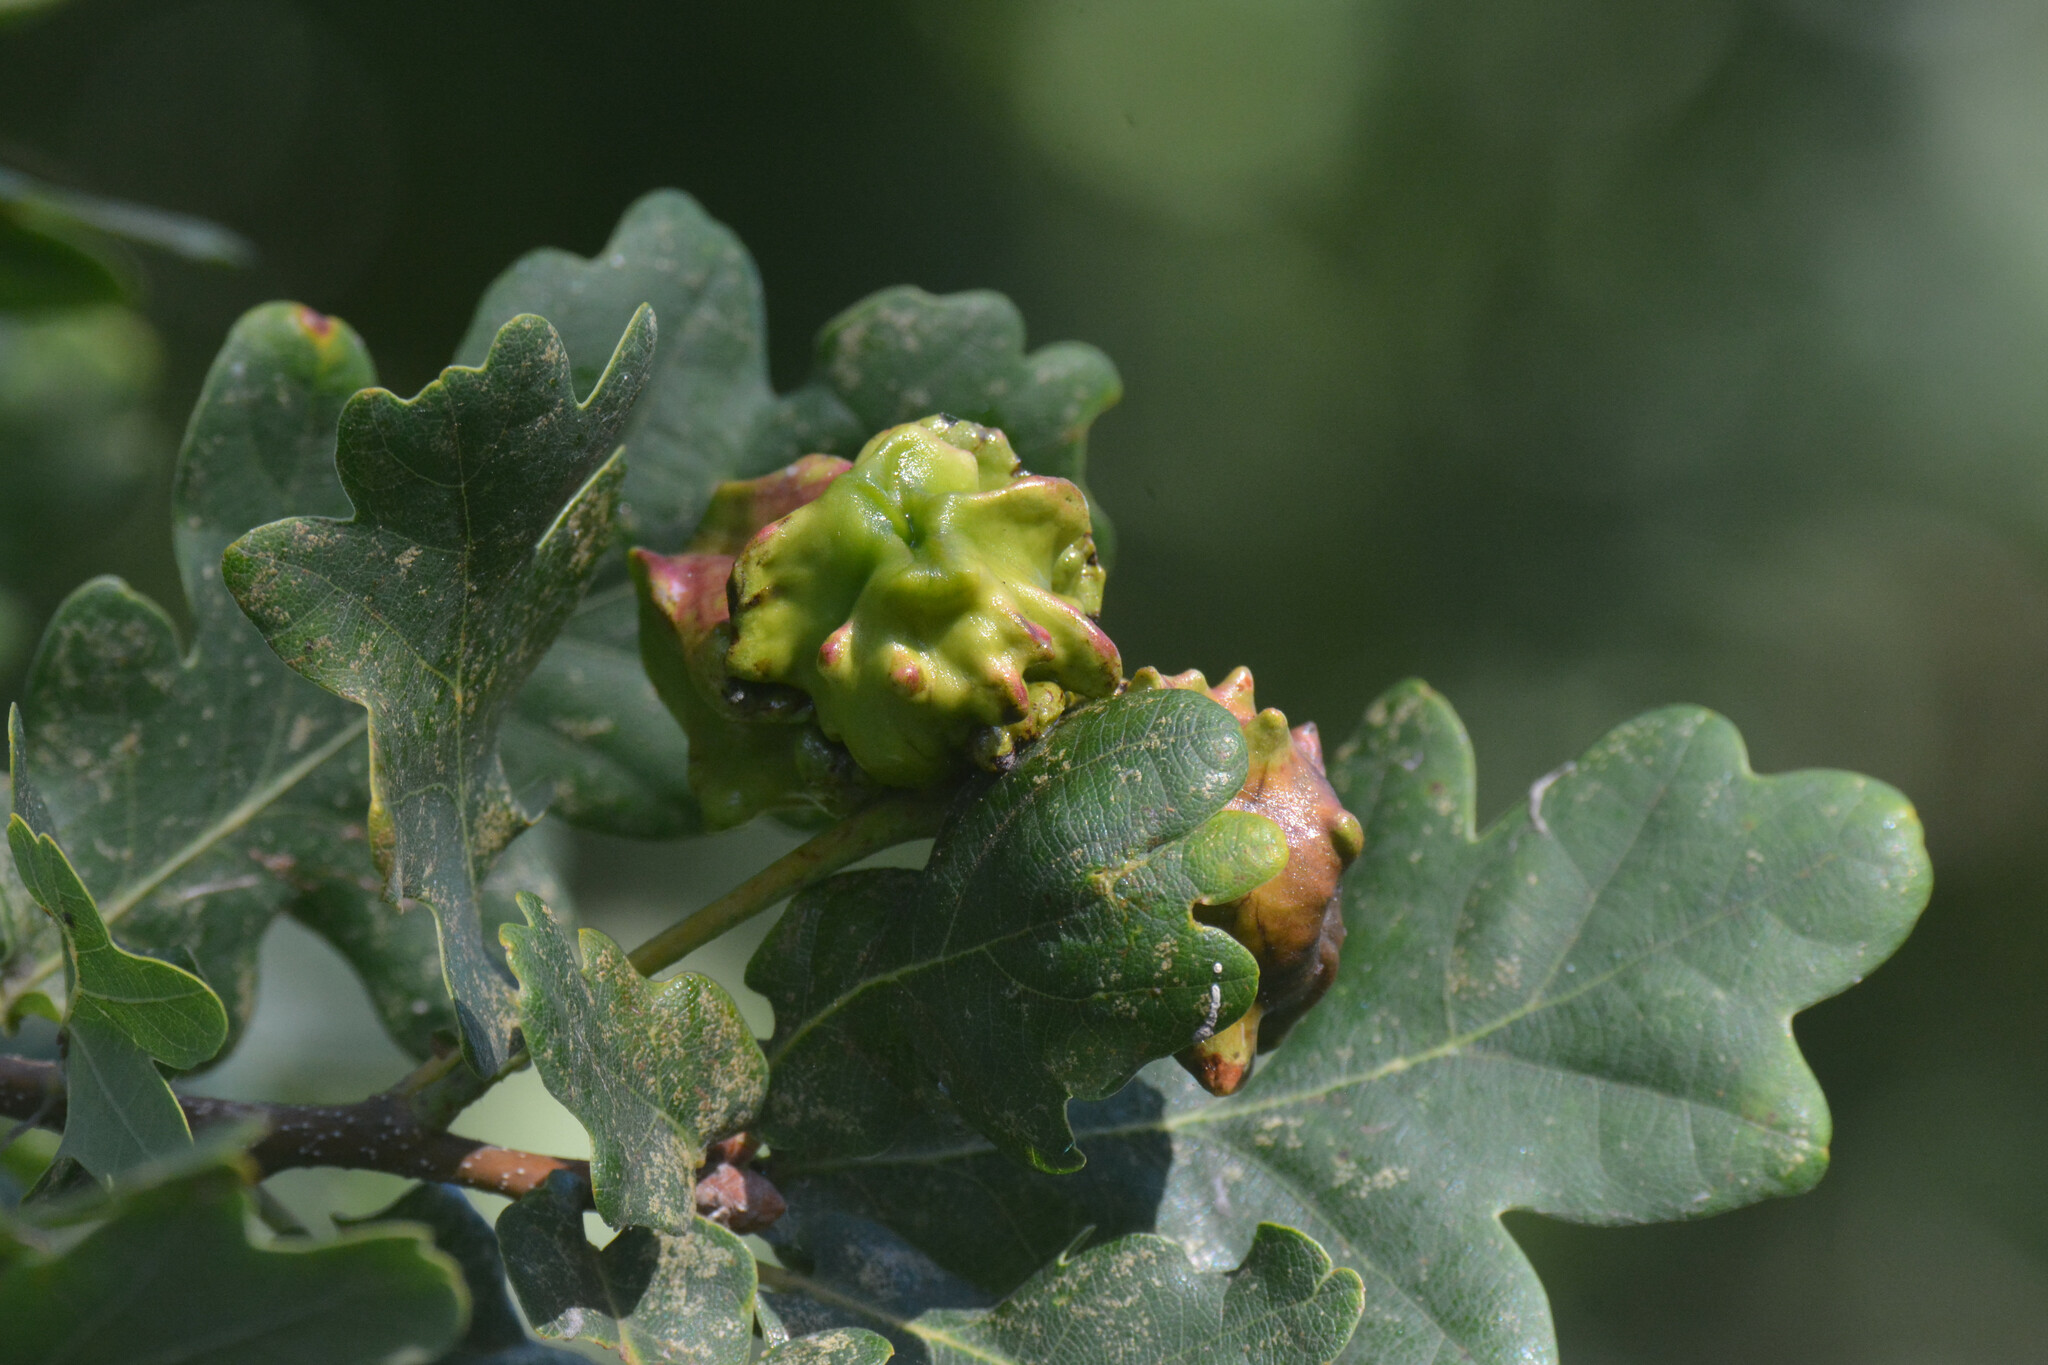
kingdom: Animalia
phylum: Arthropoda
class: Insecta
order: Hymenoptera
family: Cynipidae
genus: Andricus
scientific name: Andricus quercuscalicis
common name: Knopper gall
